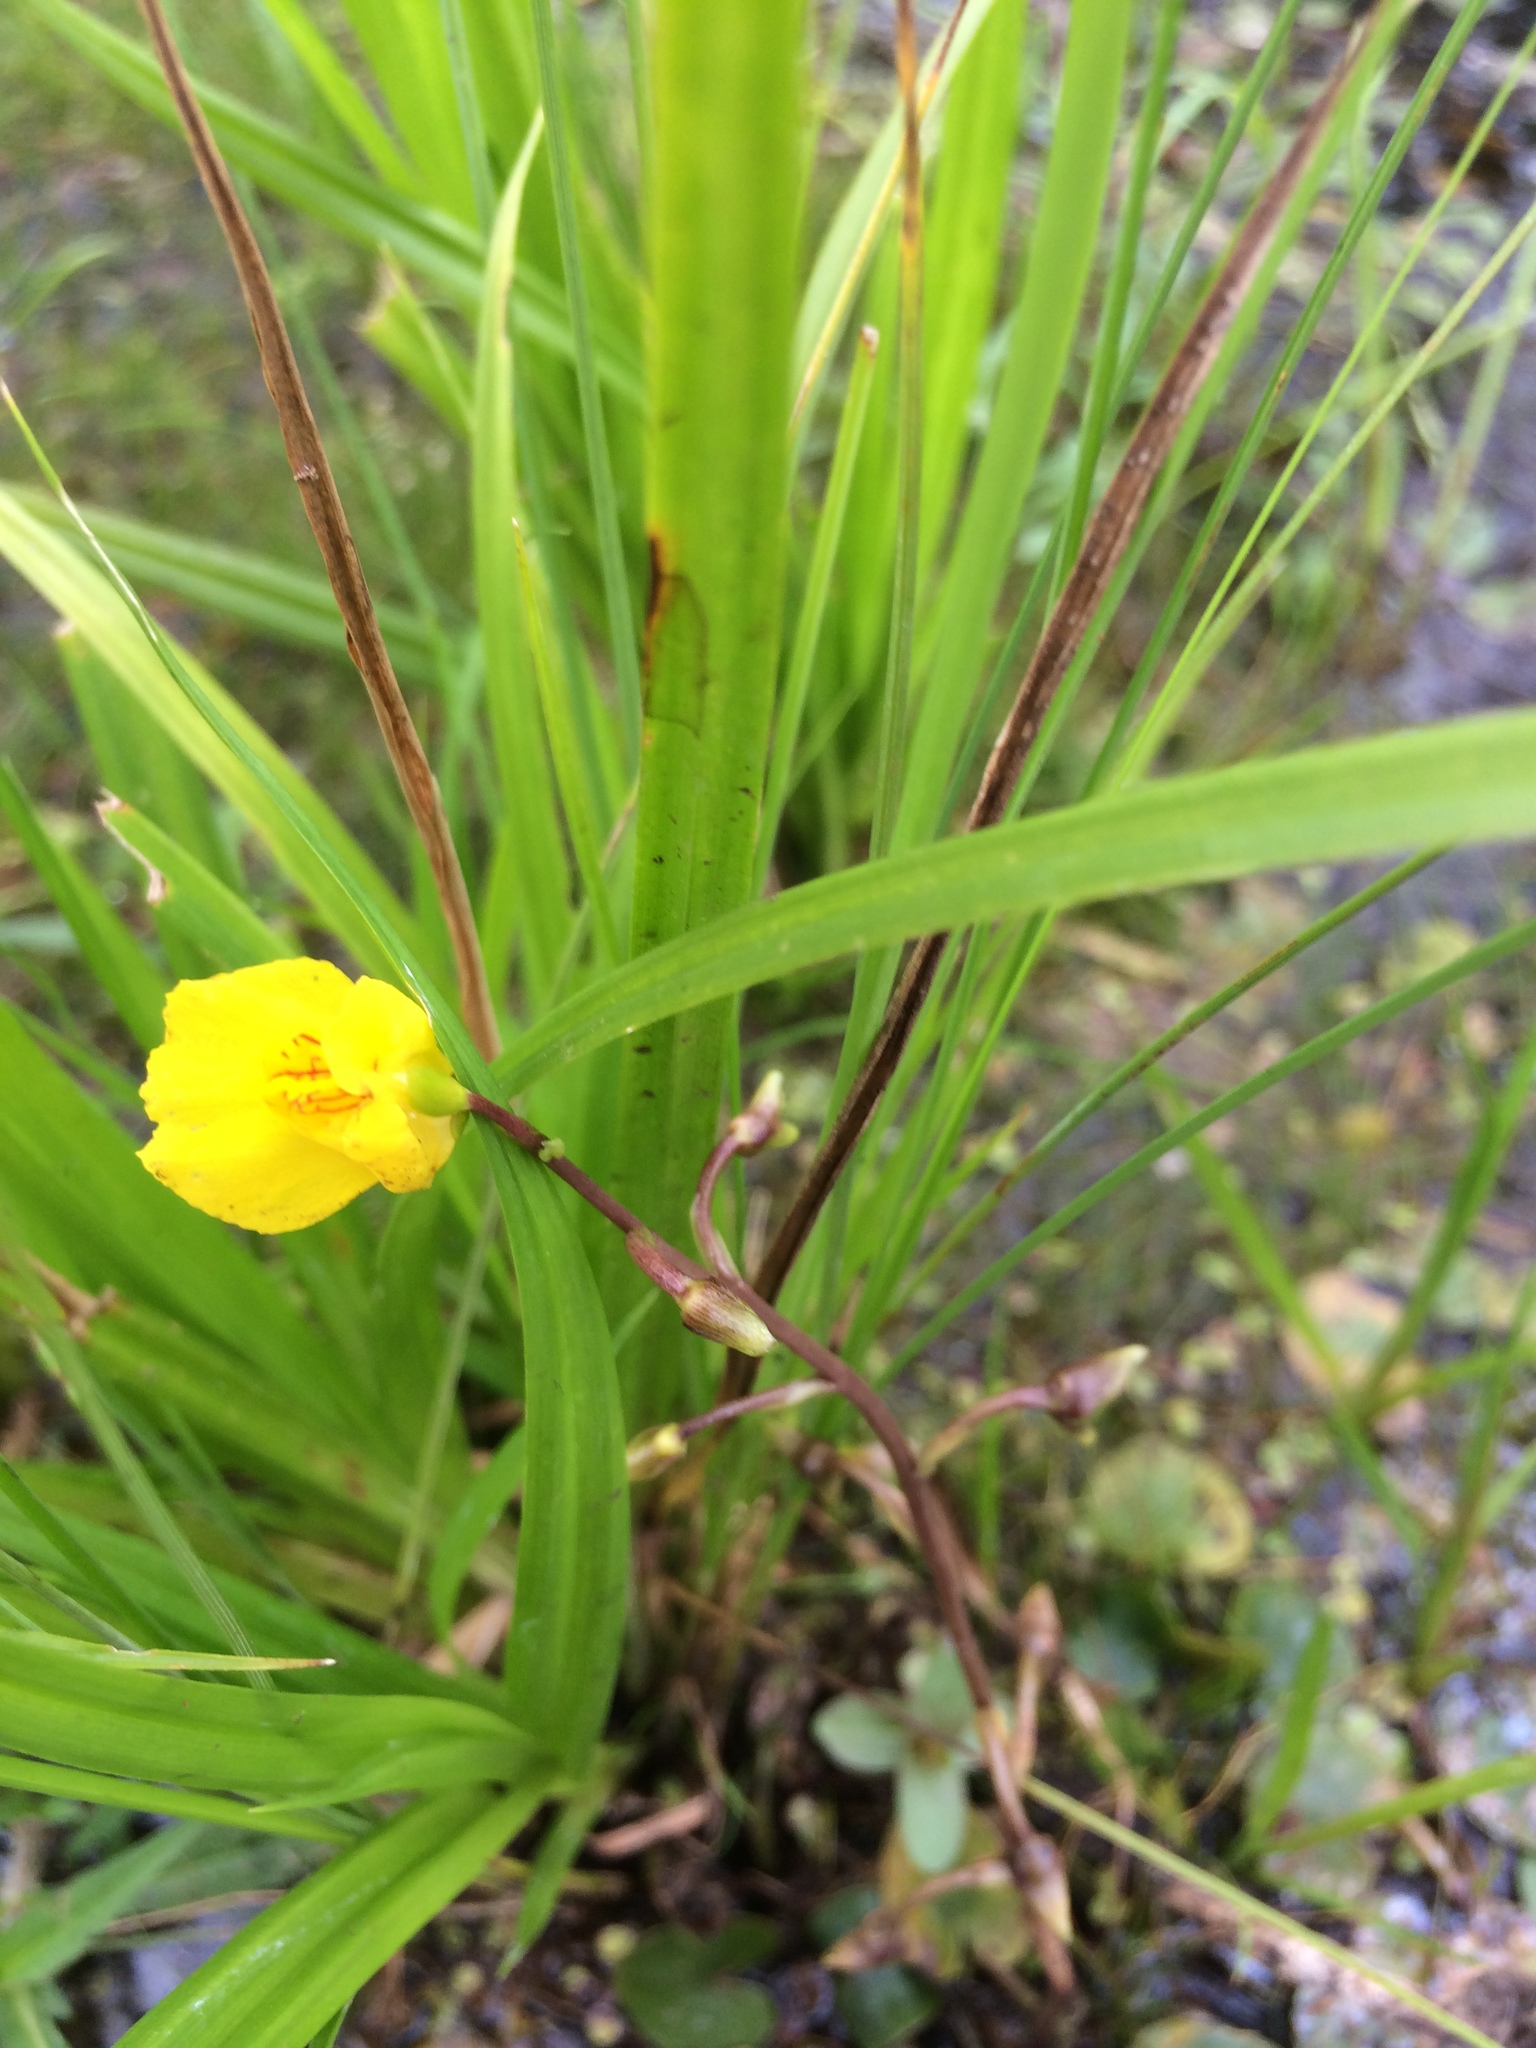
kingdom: Plantae
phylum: Tracheophyta
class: Magnoliopsida
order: Lamiales
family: Lentibulariaceae
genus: Utricularia
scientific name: Utricularia macrorhiza
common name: Common bladderwort
